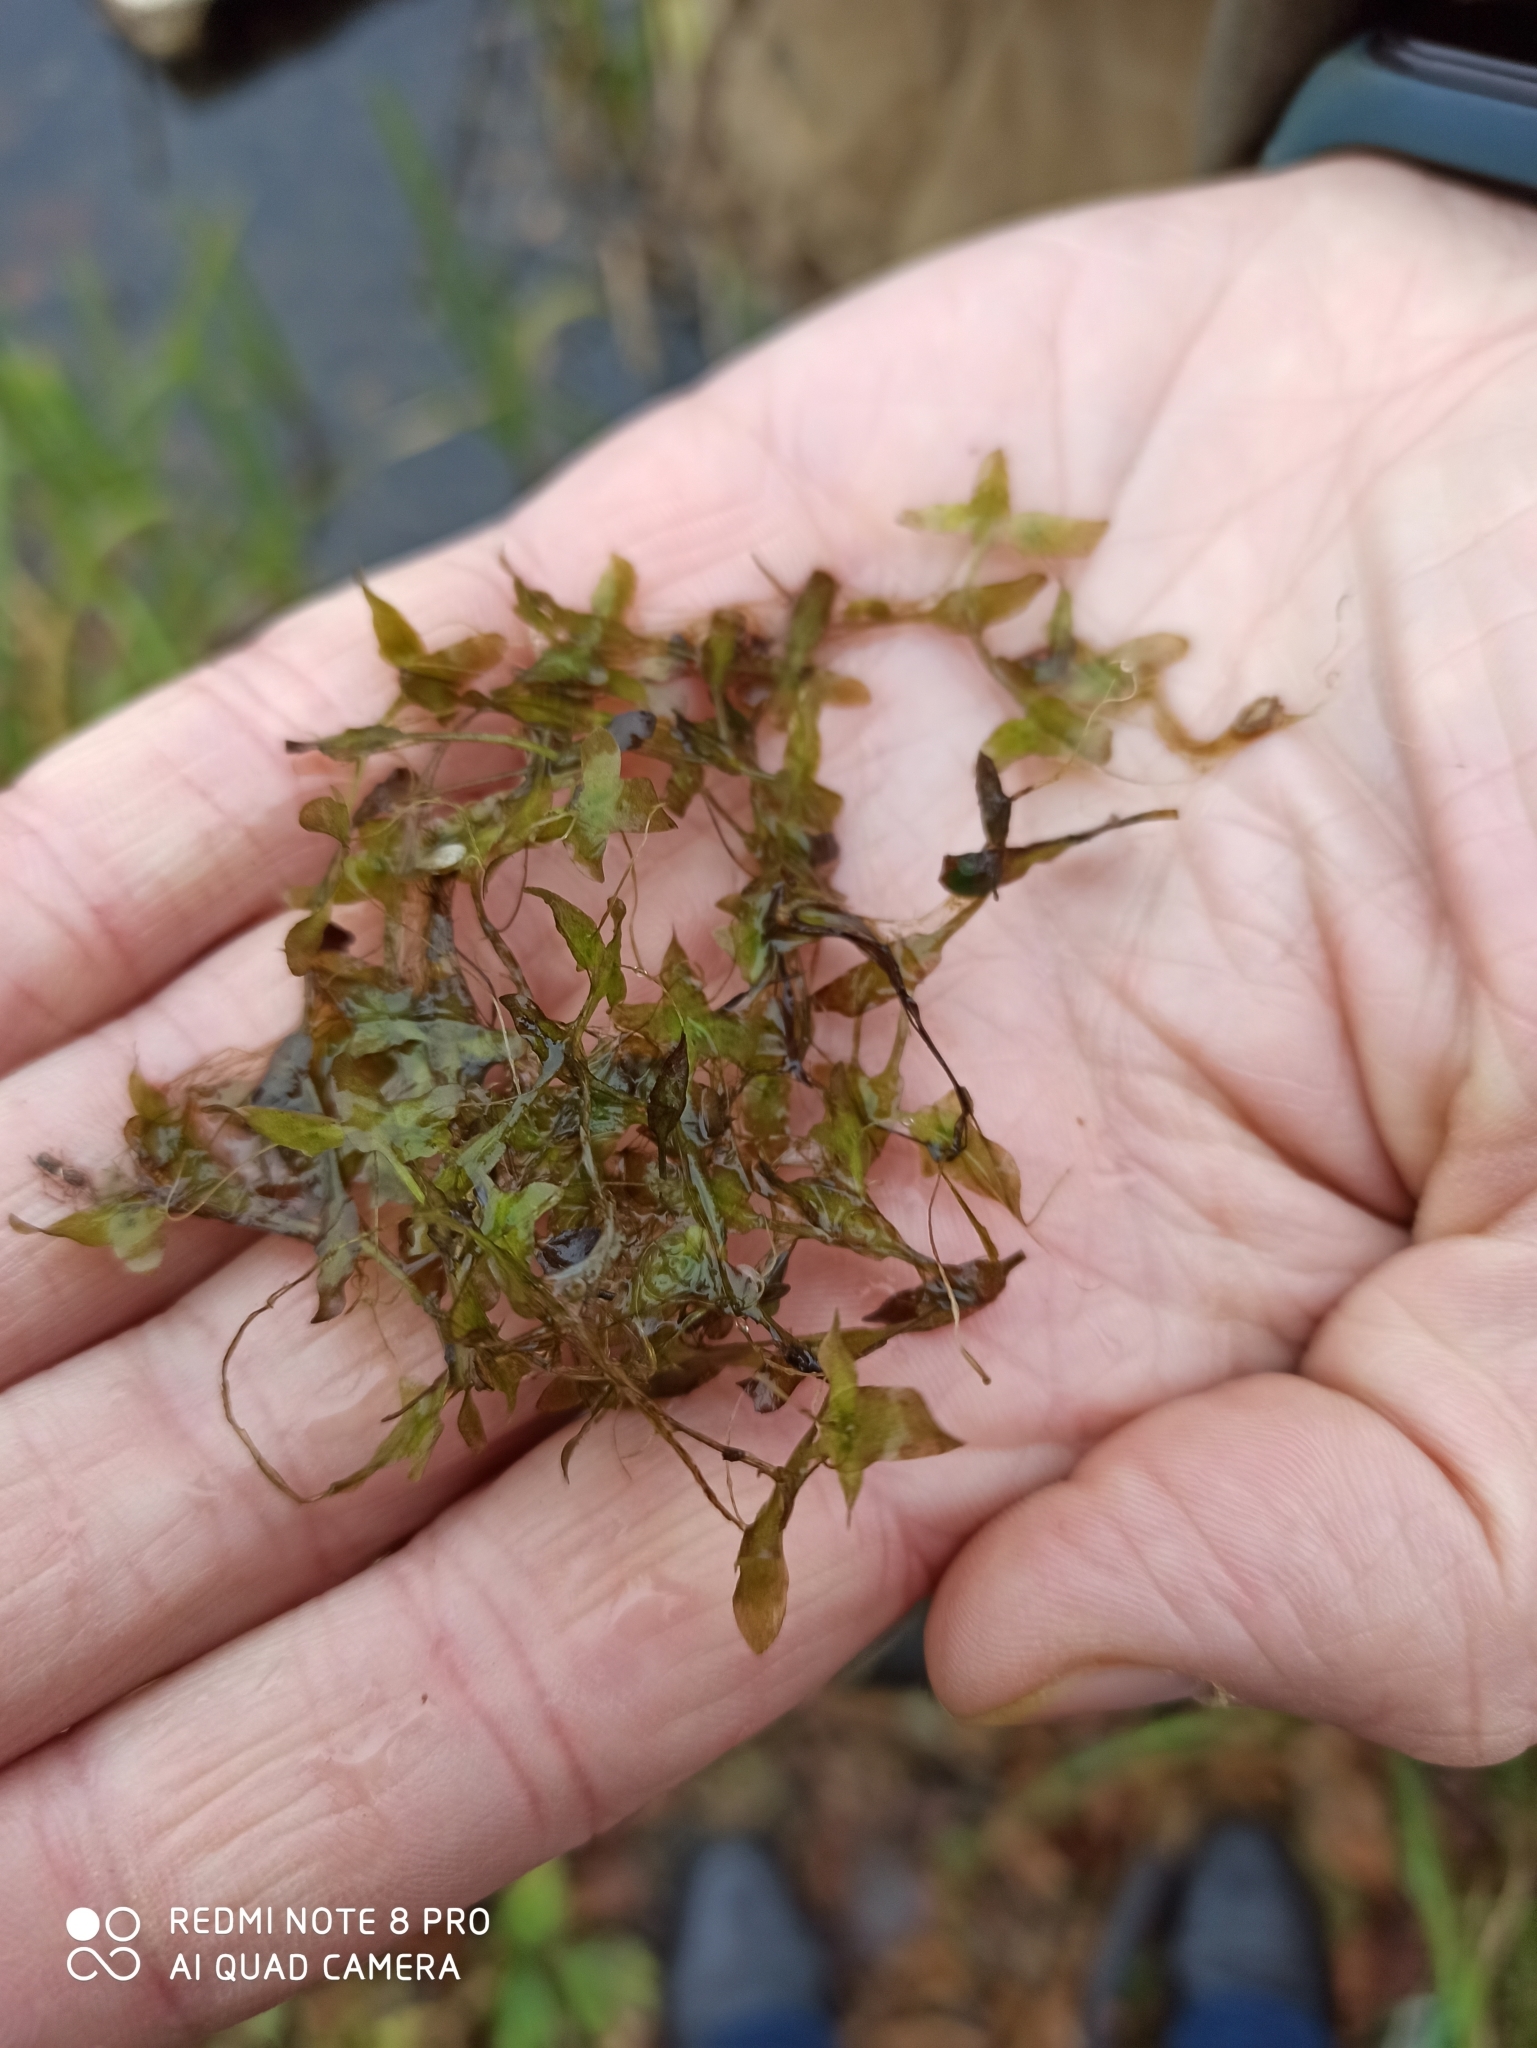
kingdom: Plantae
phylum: Tracheophyta
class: Liliopsida
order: Alismatales
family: Araceae
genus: Lemna
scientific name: Lemna trisulca
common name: Ivy-leaved duckweed
